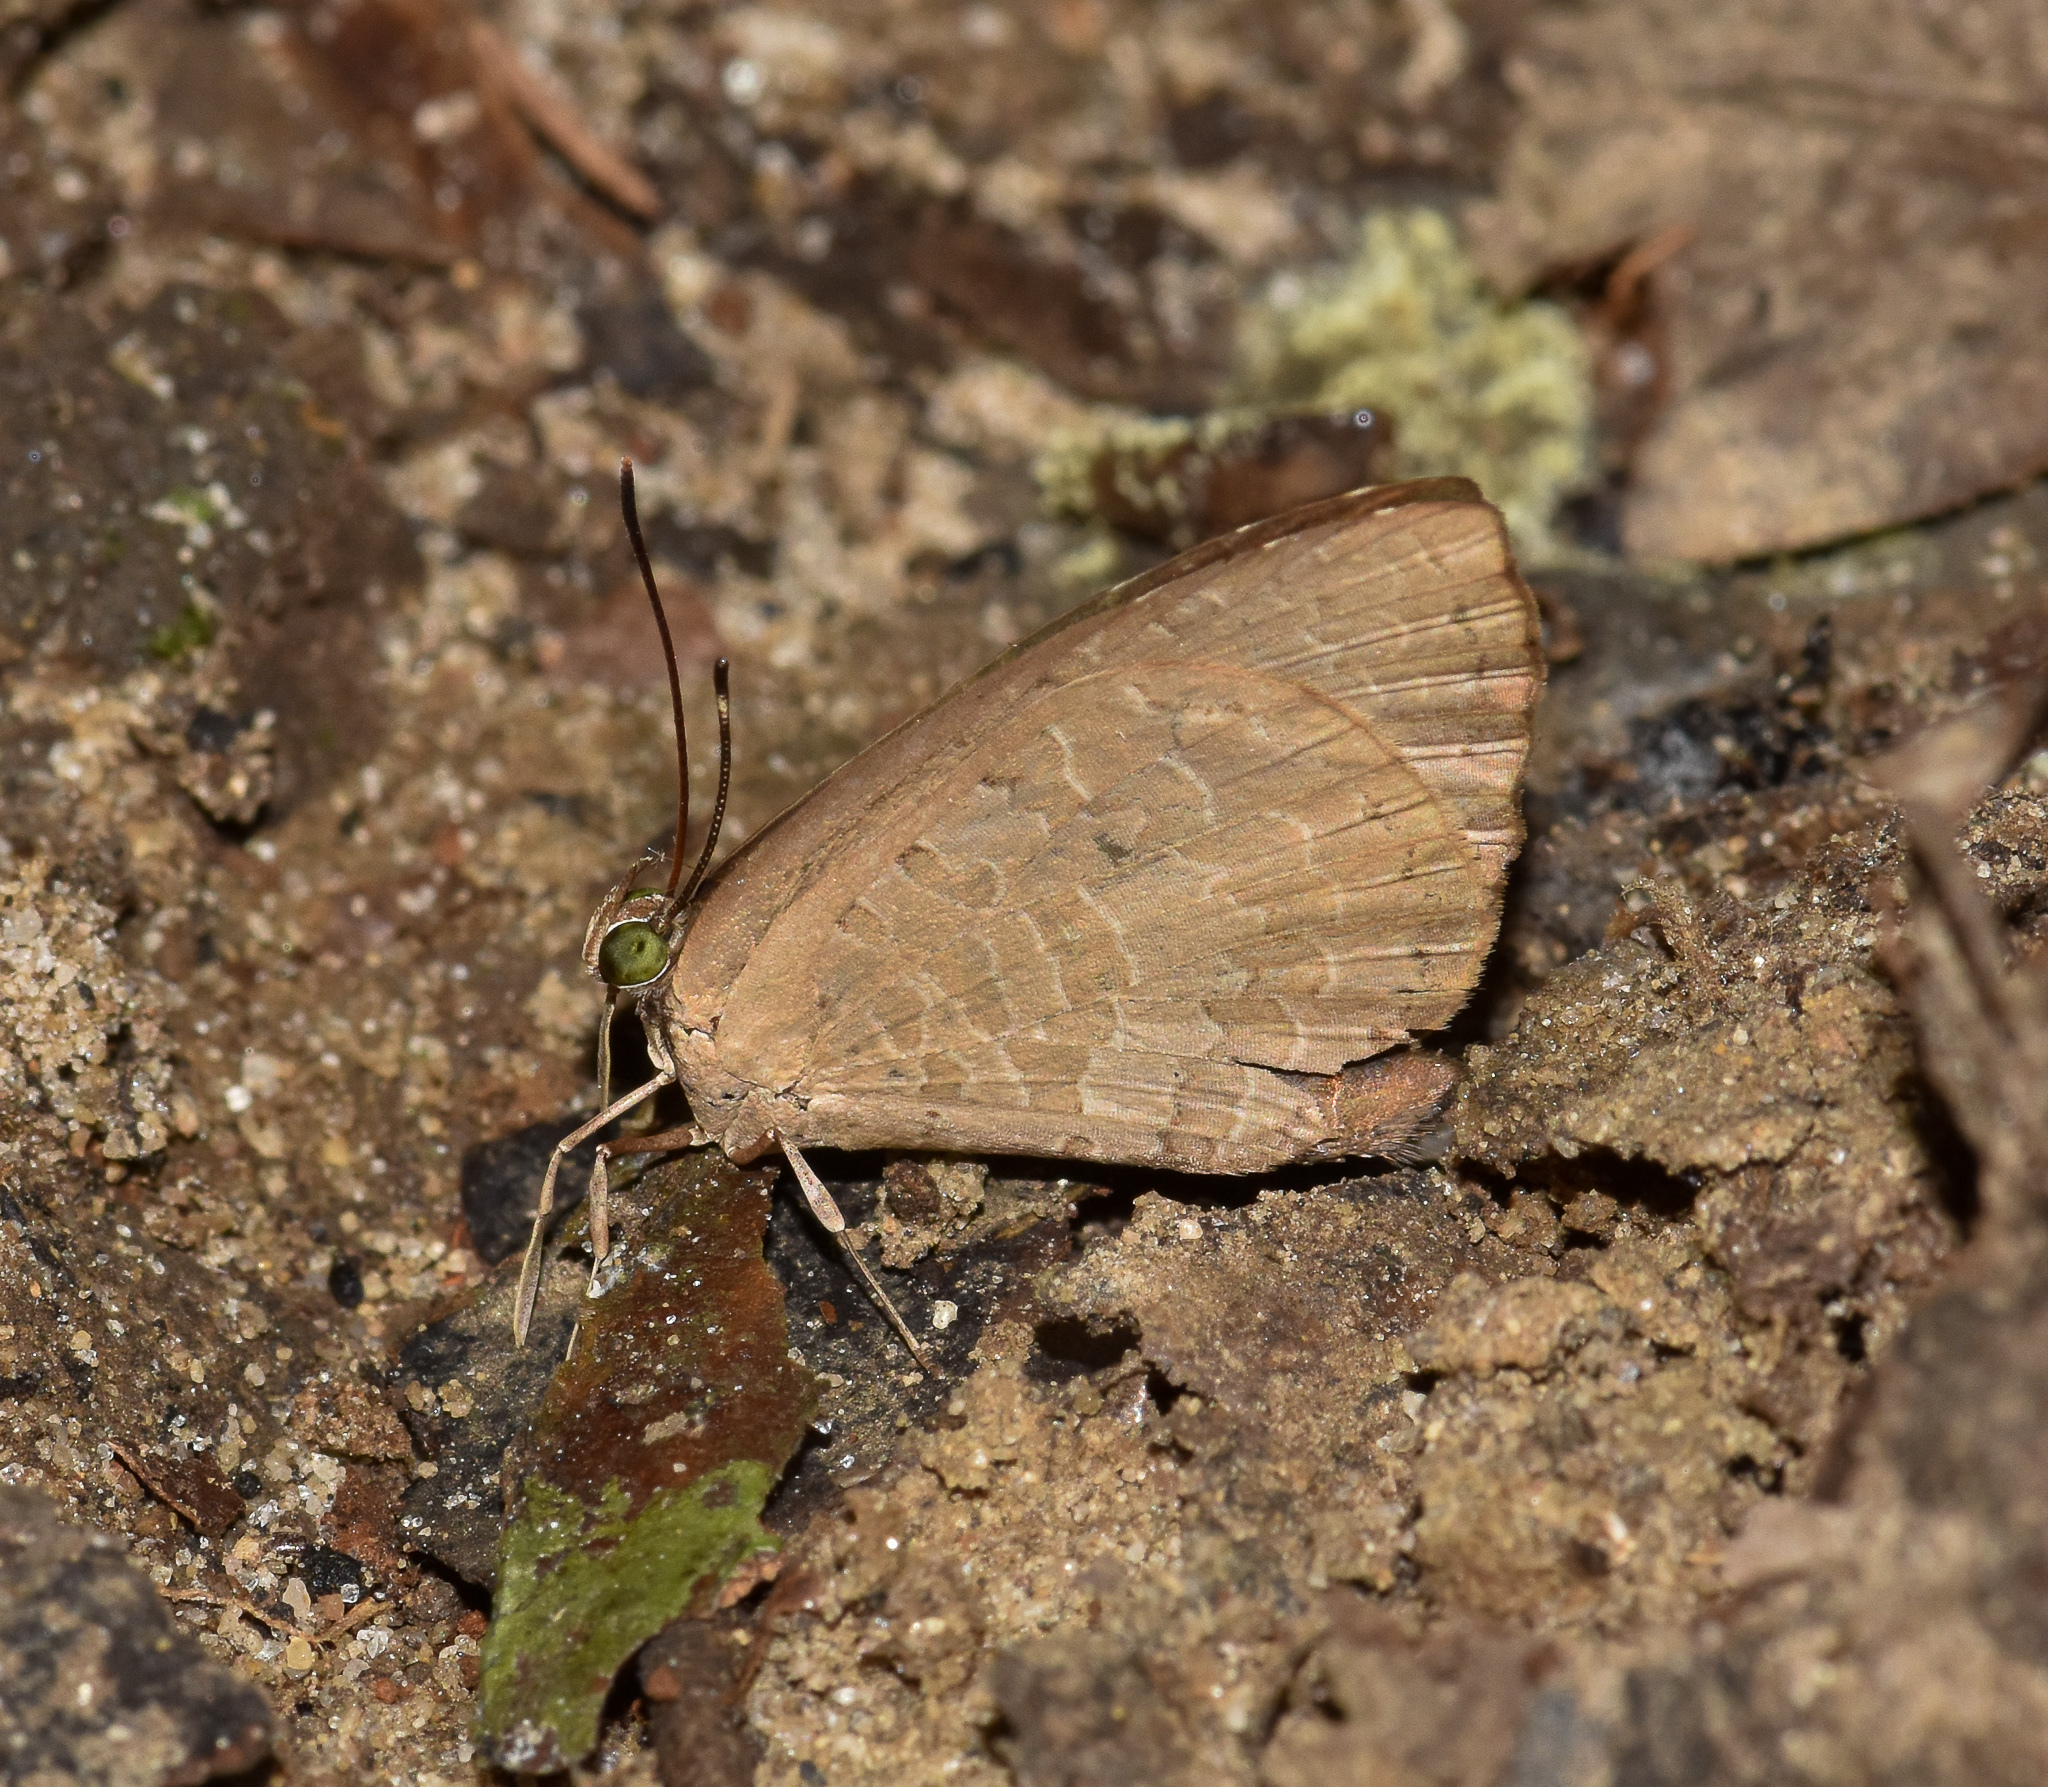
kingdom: Animalia
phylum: Arthropoda
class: Insecta
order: Lepidoptera
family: Lycaenidae
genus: Miletus
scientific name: Miletus chinensis
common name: Common brownie
